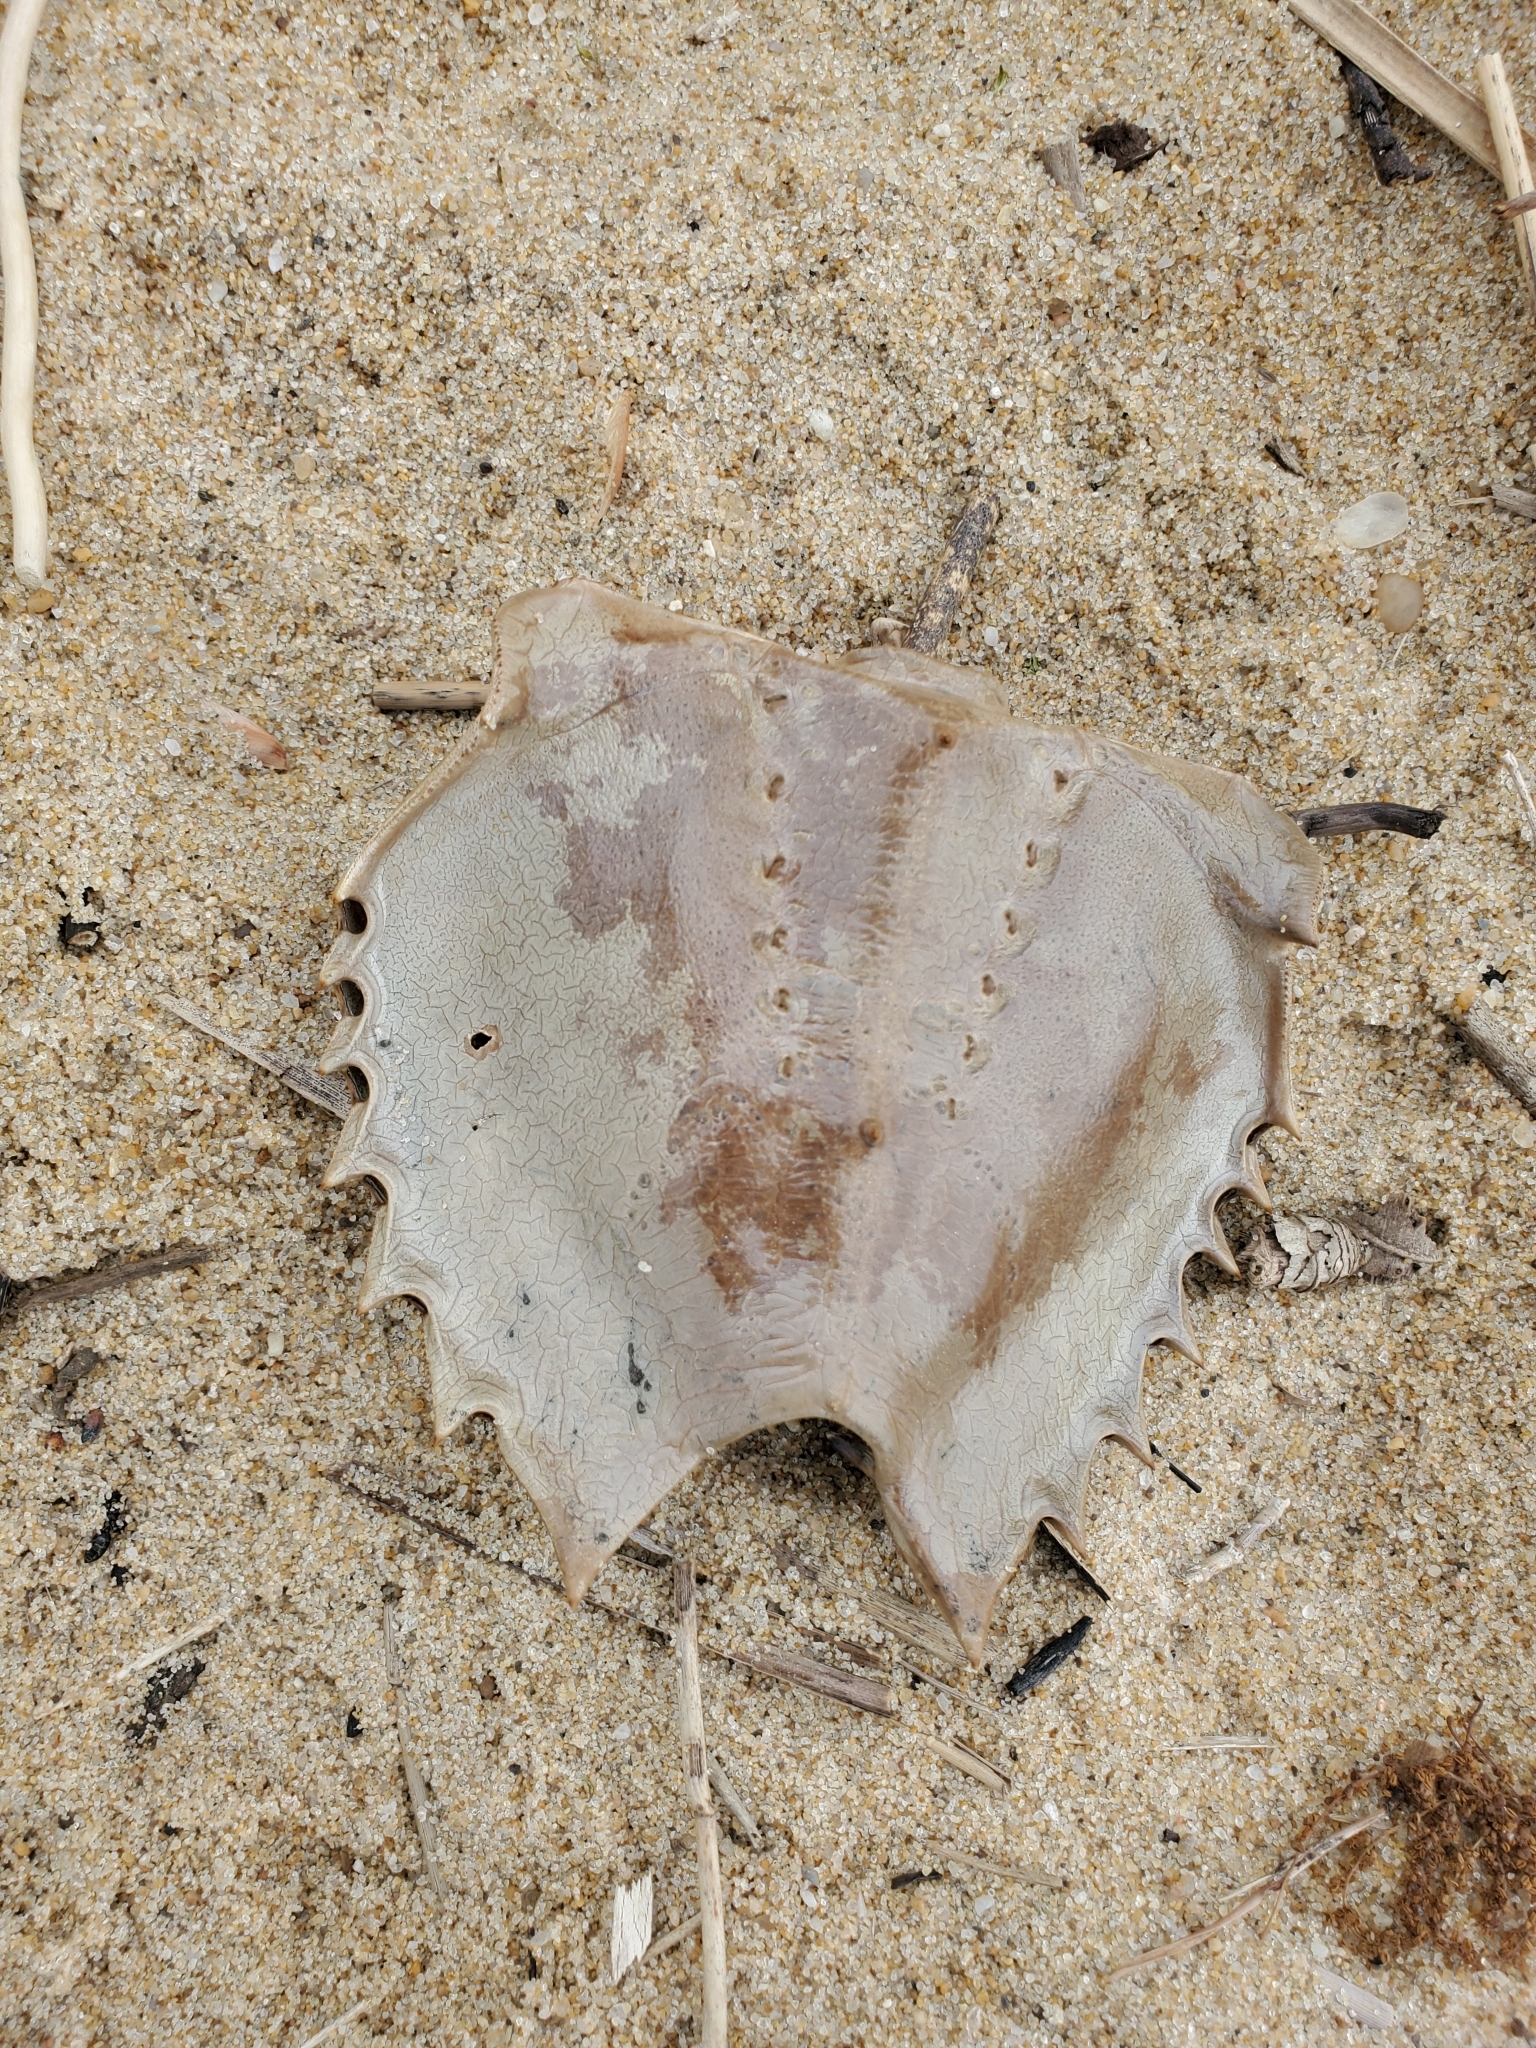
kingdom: Animalia
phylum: Arthropoda
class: Merostomata
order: Xiphosurida
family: Limulidae
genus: Limulus
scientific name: Limulus polyphemus
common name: Horseshoe crab
